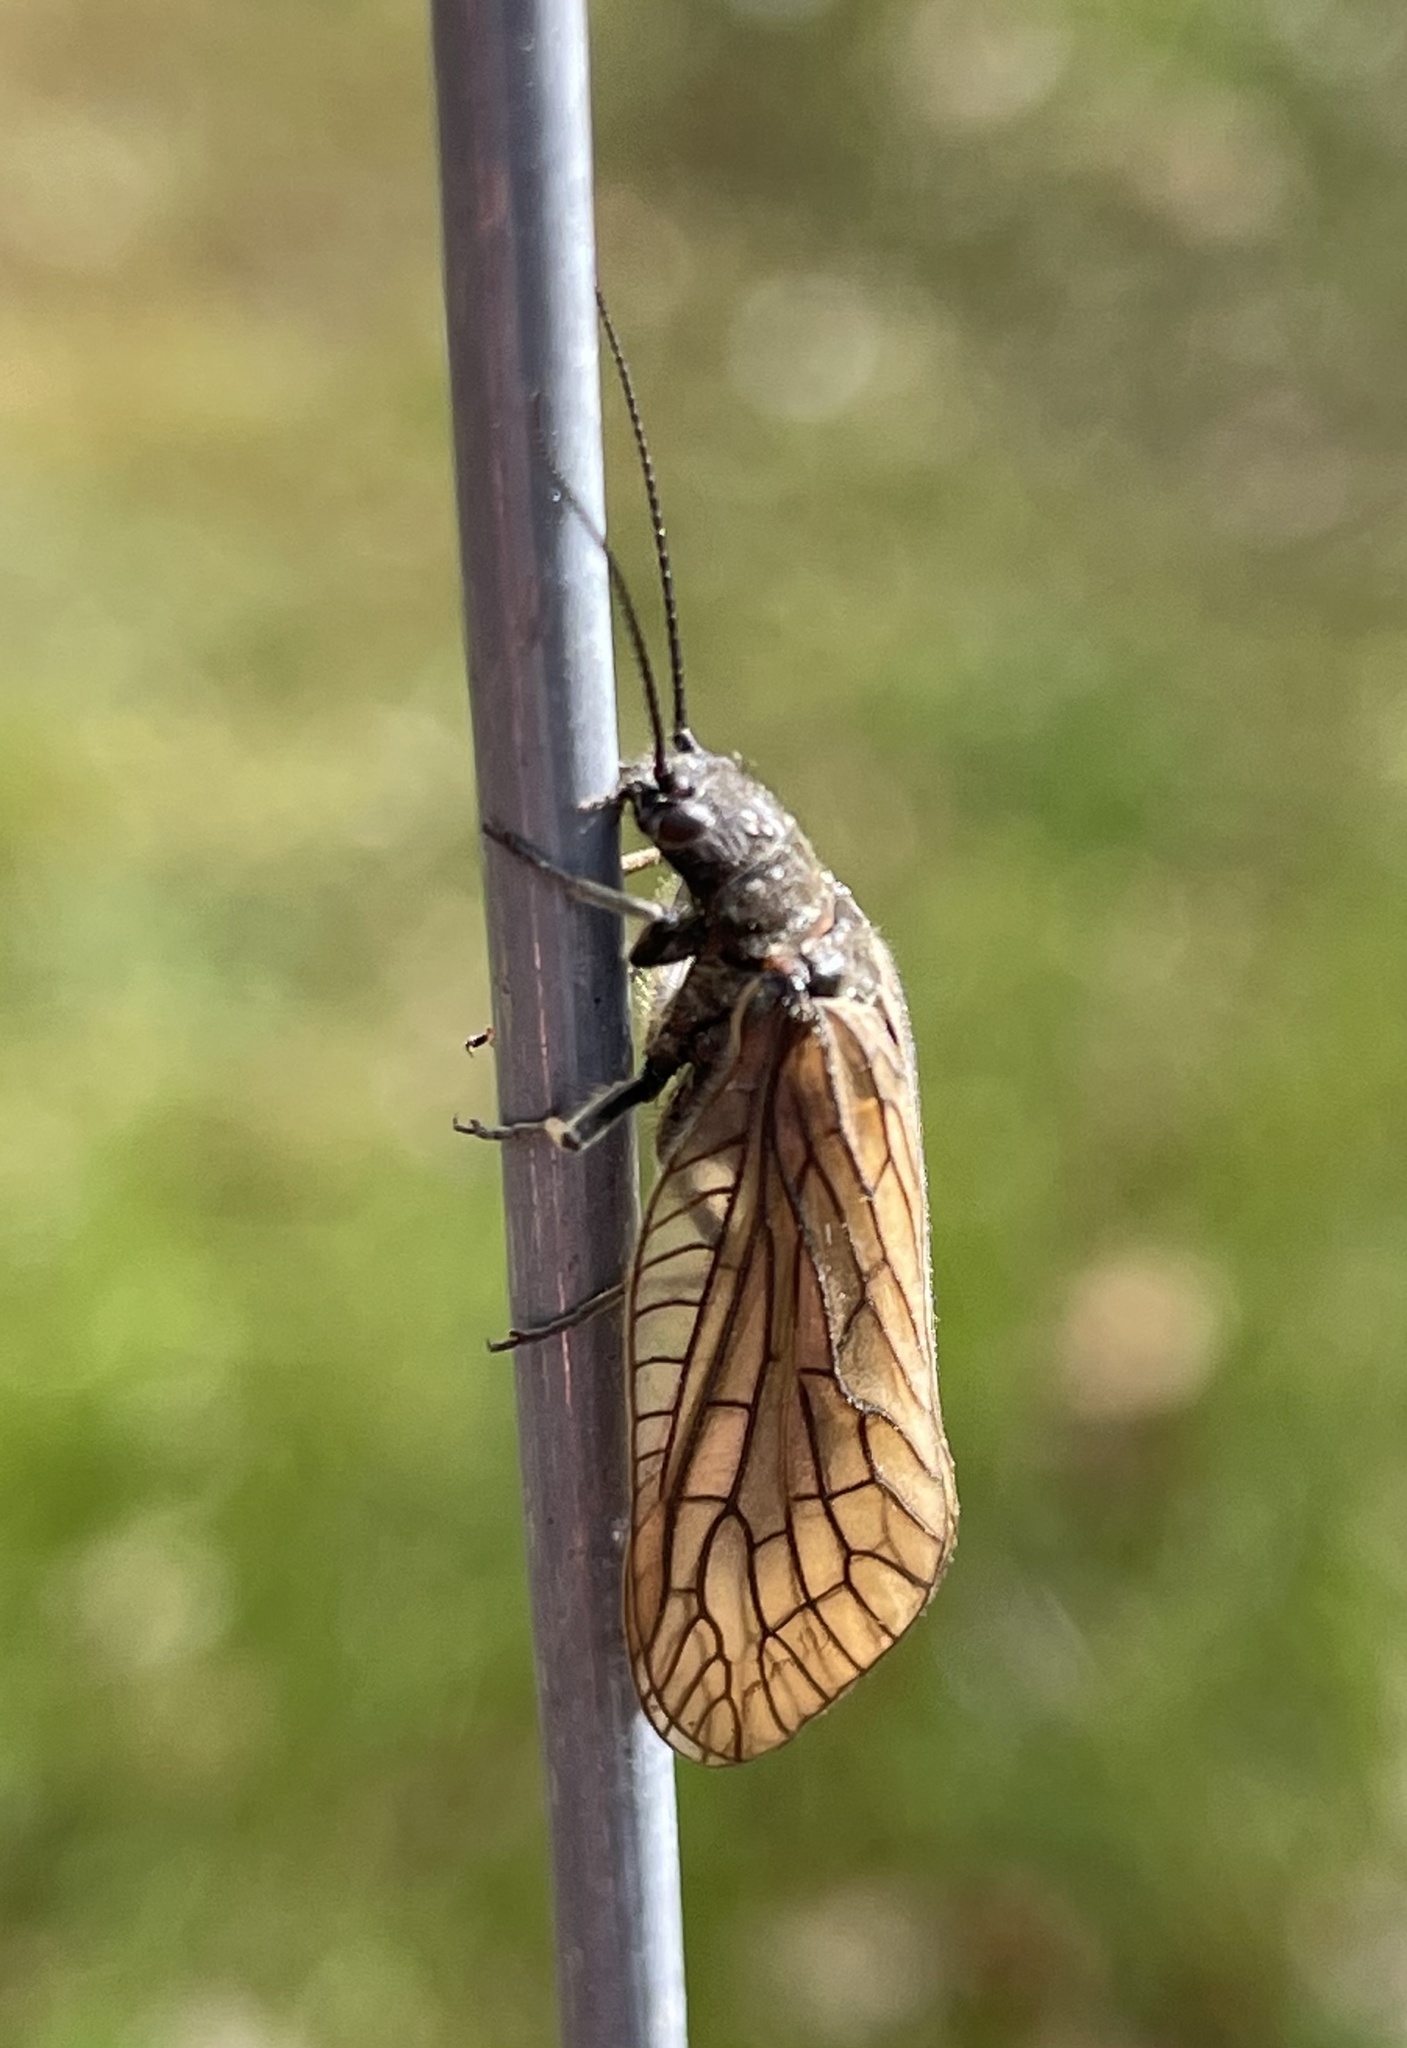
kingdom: Animalia
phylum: Arthropoda
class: Insecta
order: Megaloptera
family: Sialidae
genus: Sialis
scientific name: Sialis
